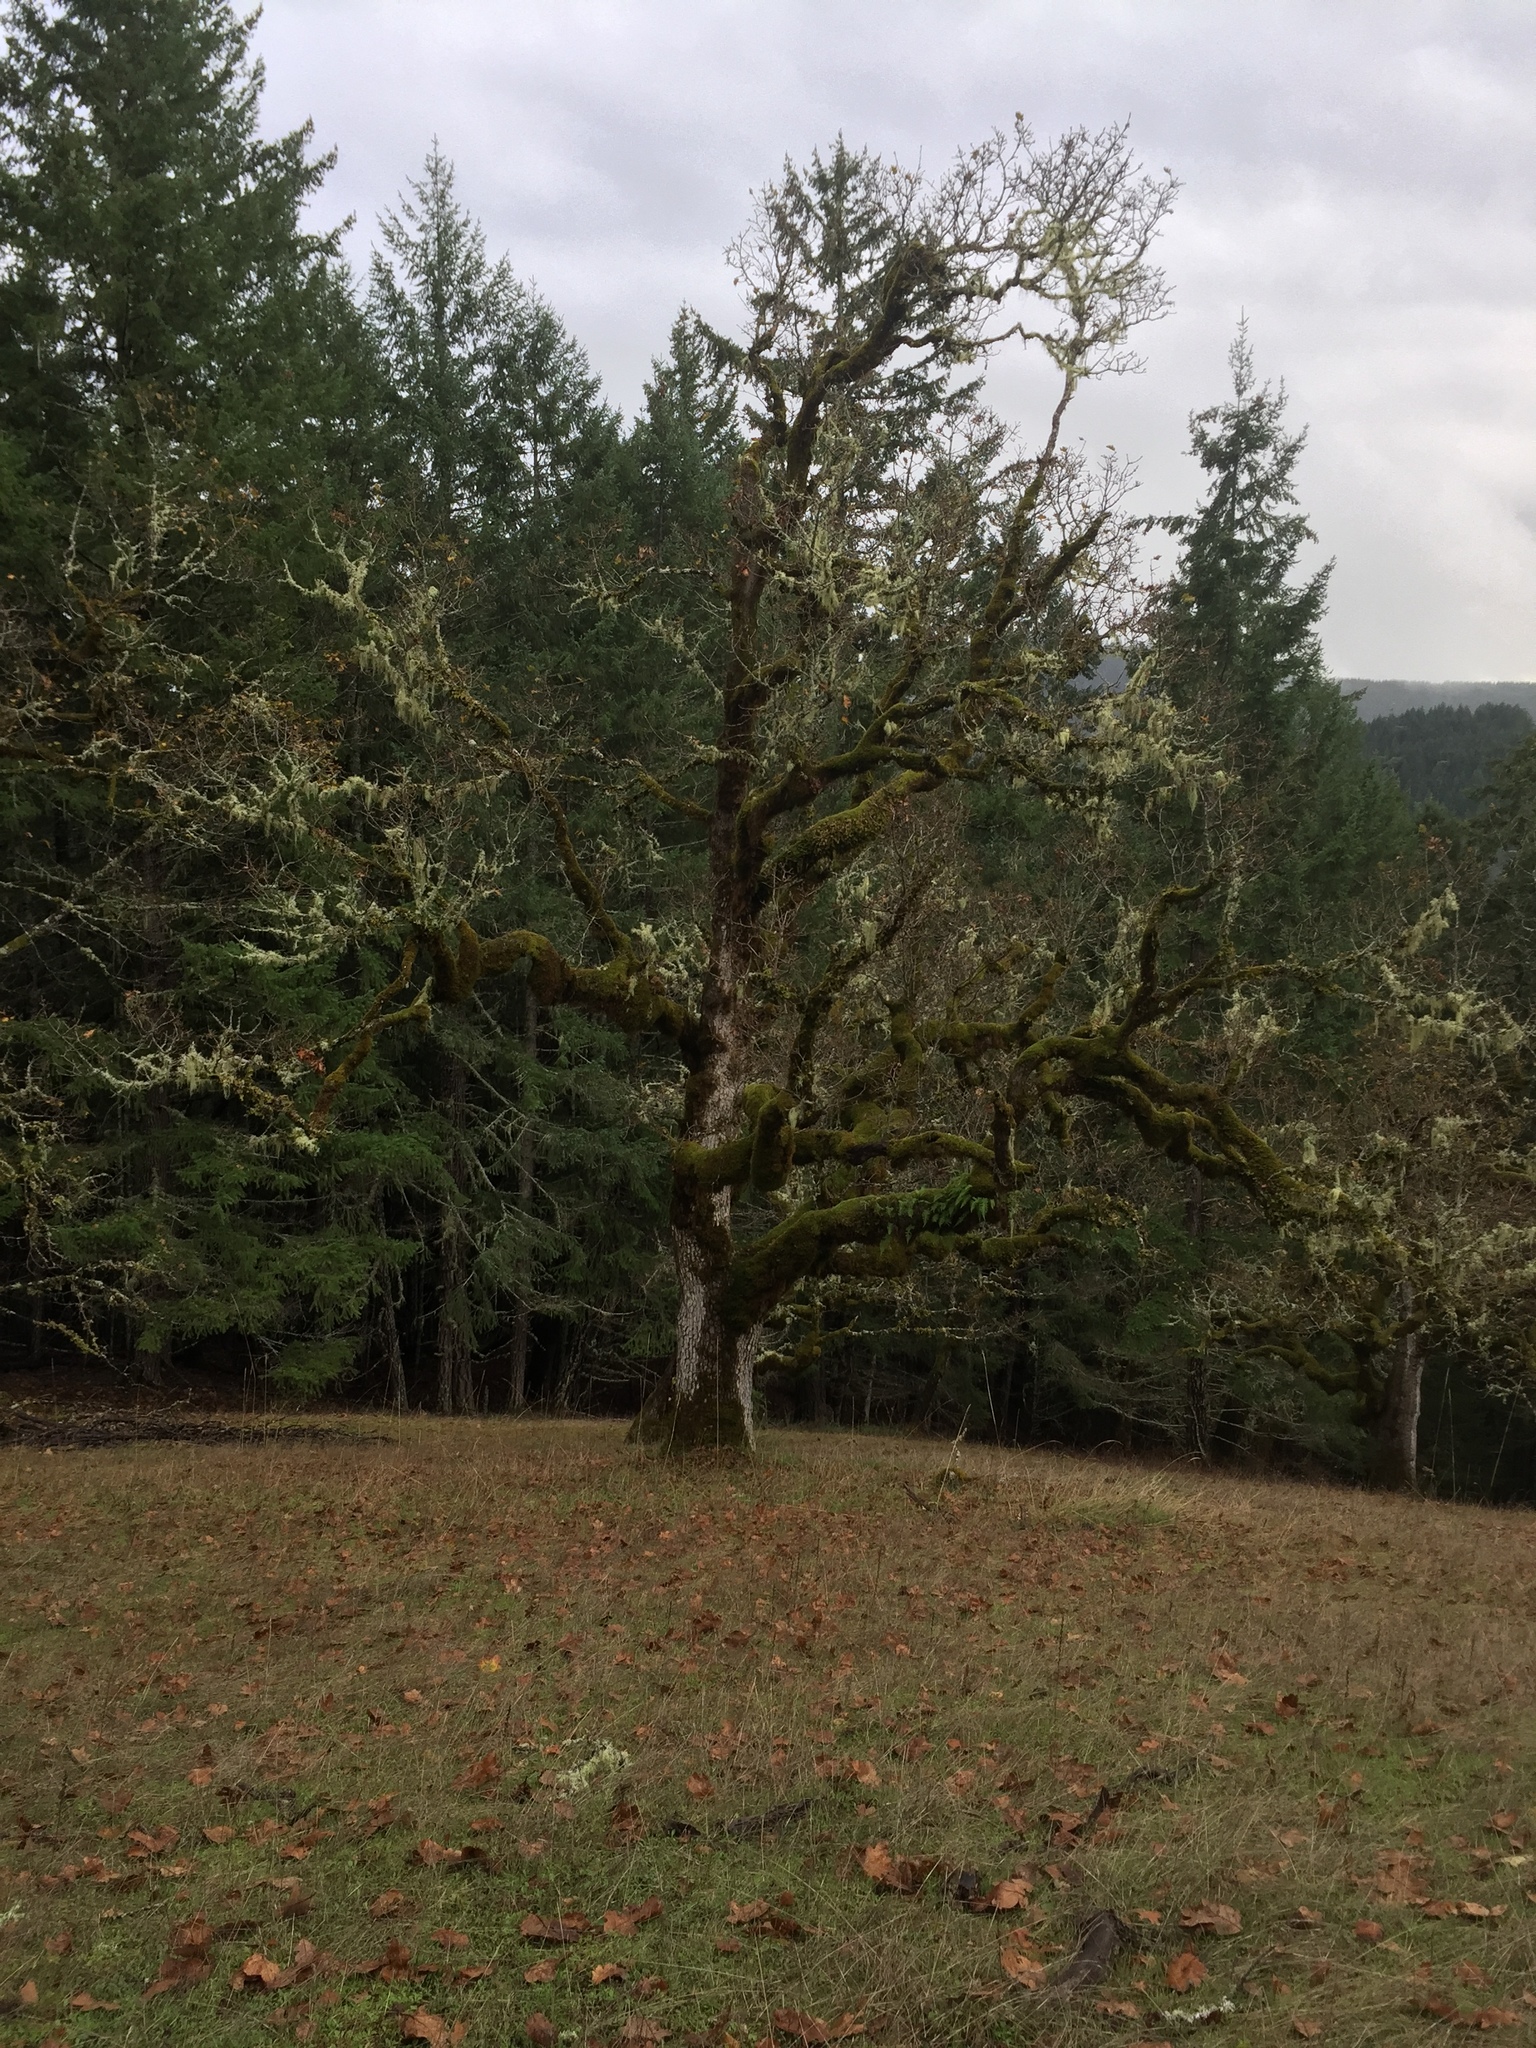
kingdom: Plantae
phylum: Tracheophyta
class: Magnoliopsida
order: Fagales
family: Fagaceae
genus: Quercus
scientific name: Quercus garryana
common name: Garry oak
